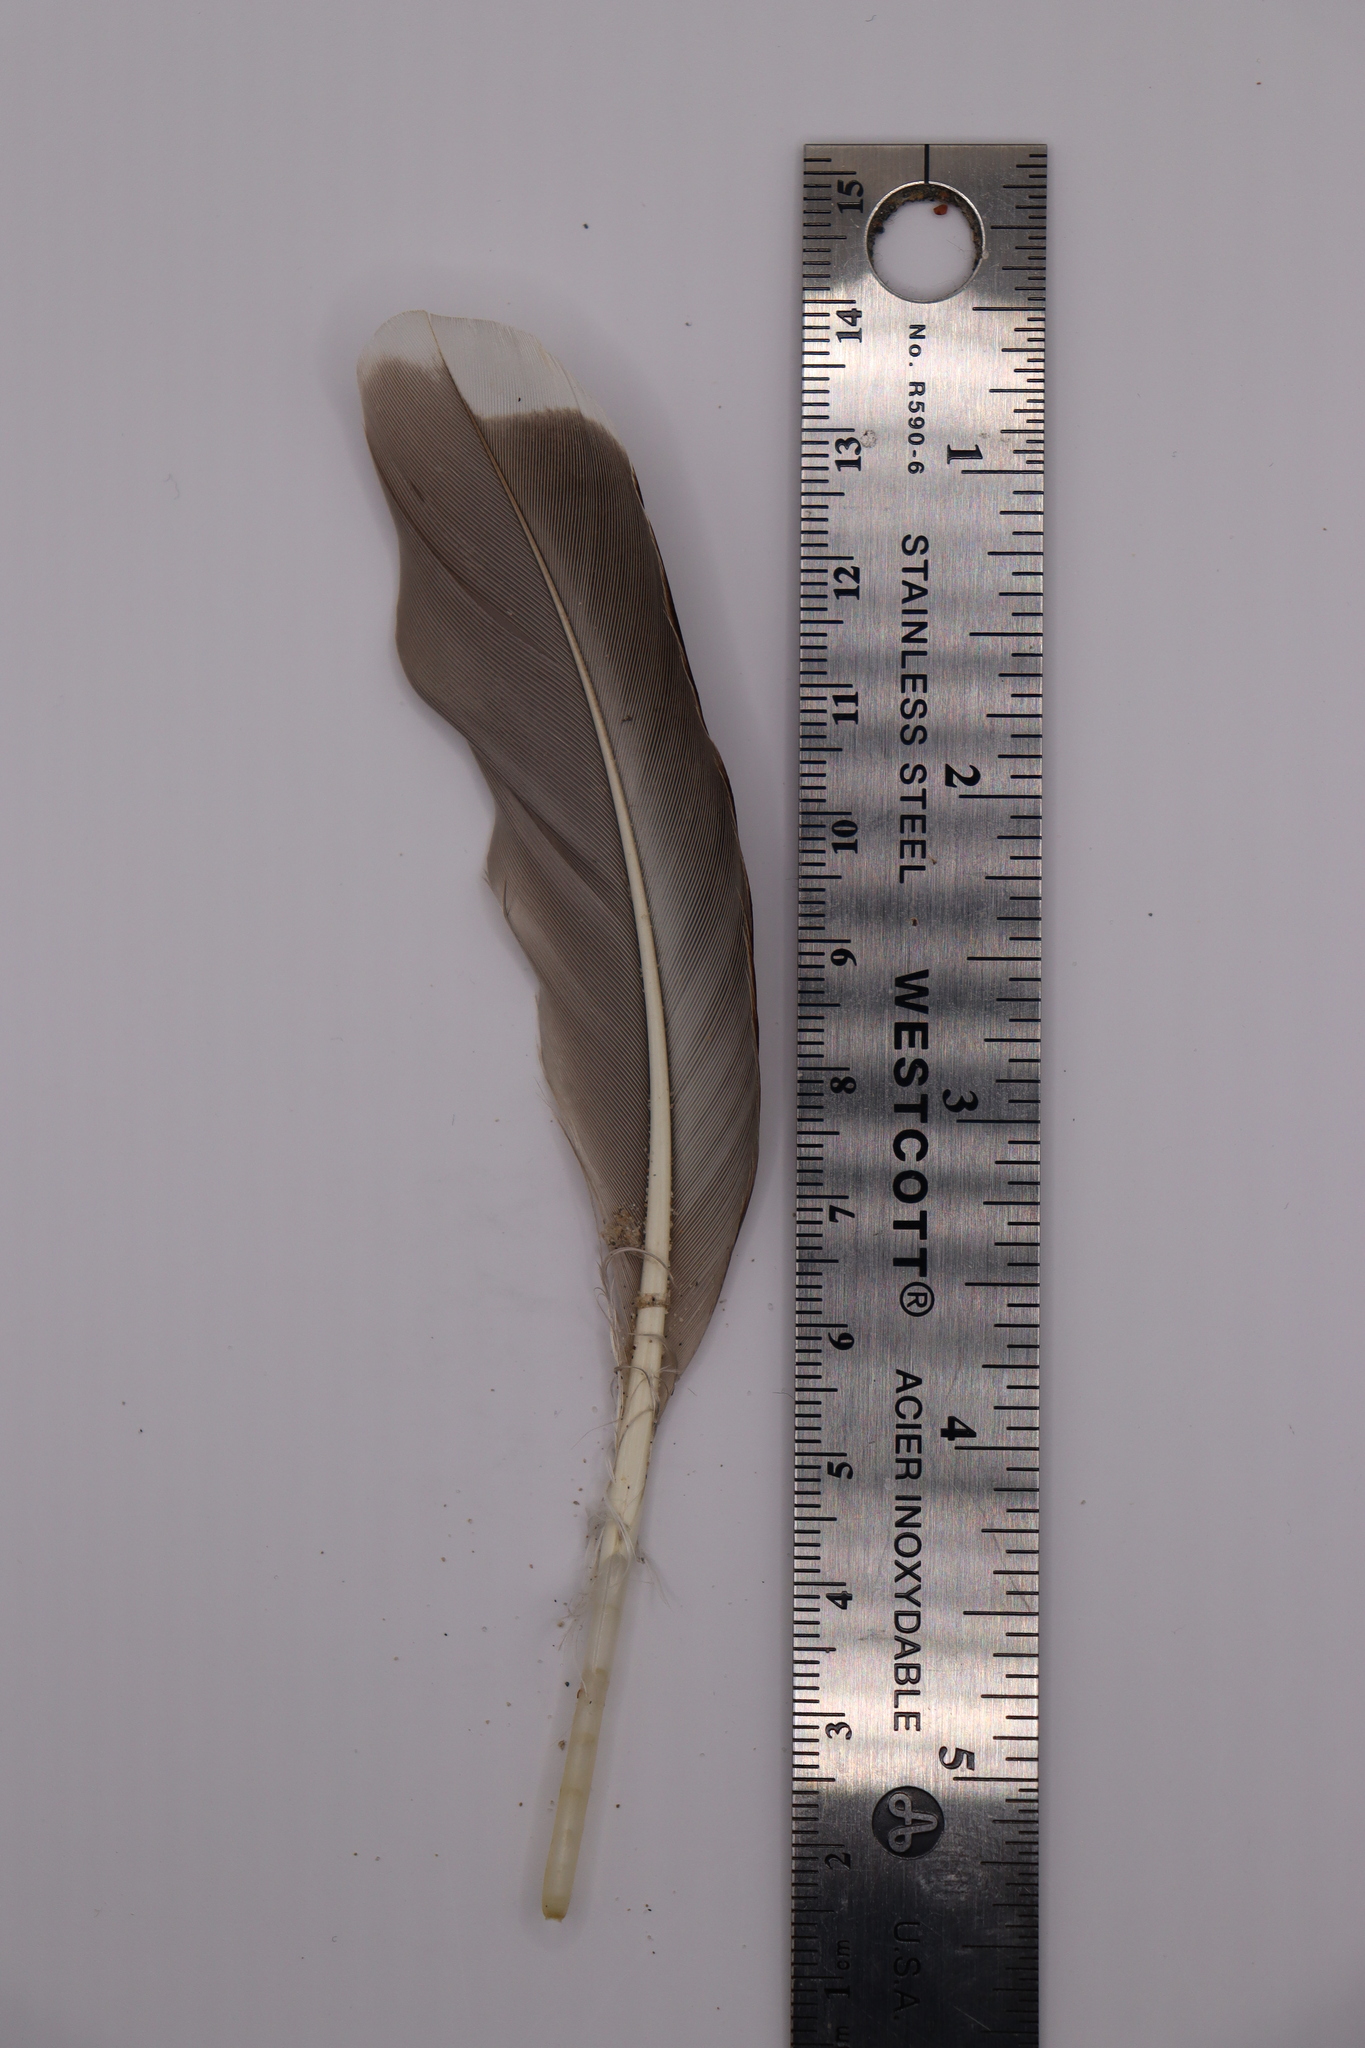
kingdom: Animalia
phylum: Chordata
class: Aves
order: Anseriformes
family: Anatidae
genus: Anas
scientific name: Anas platyrhynchos
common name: Mallard
